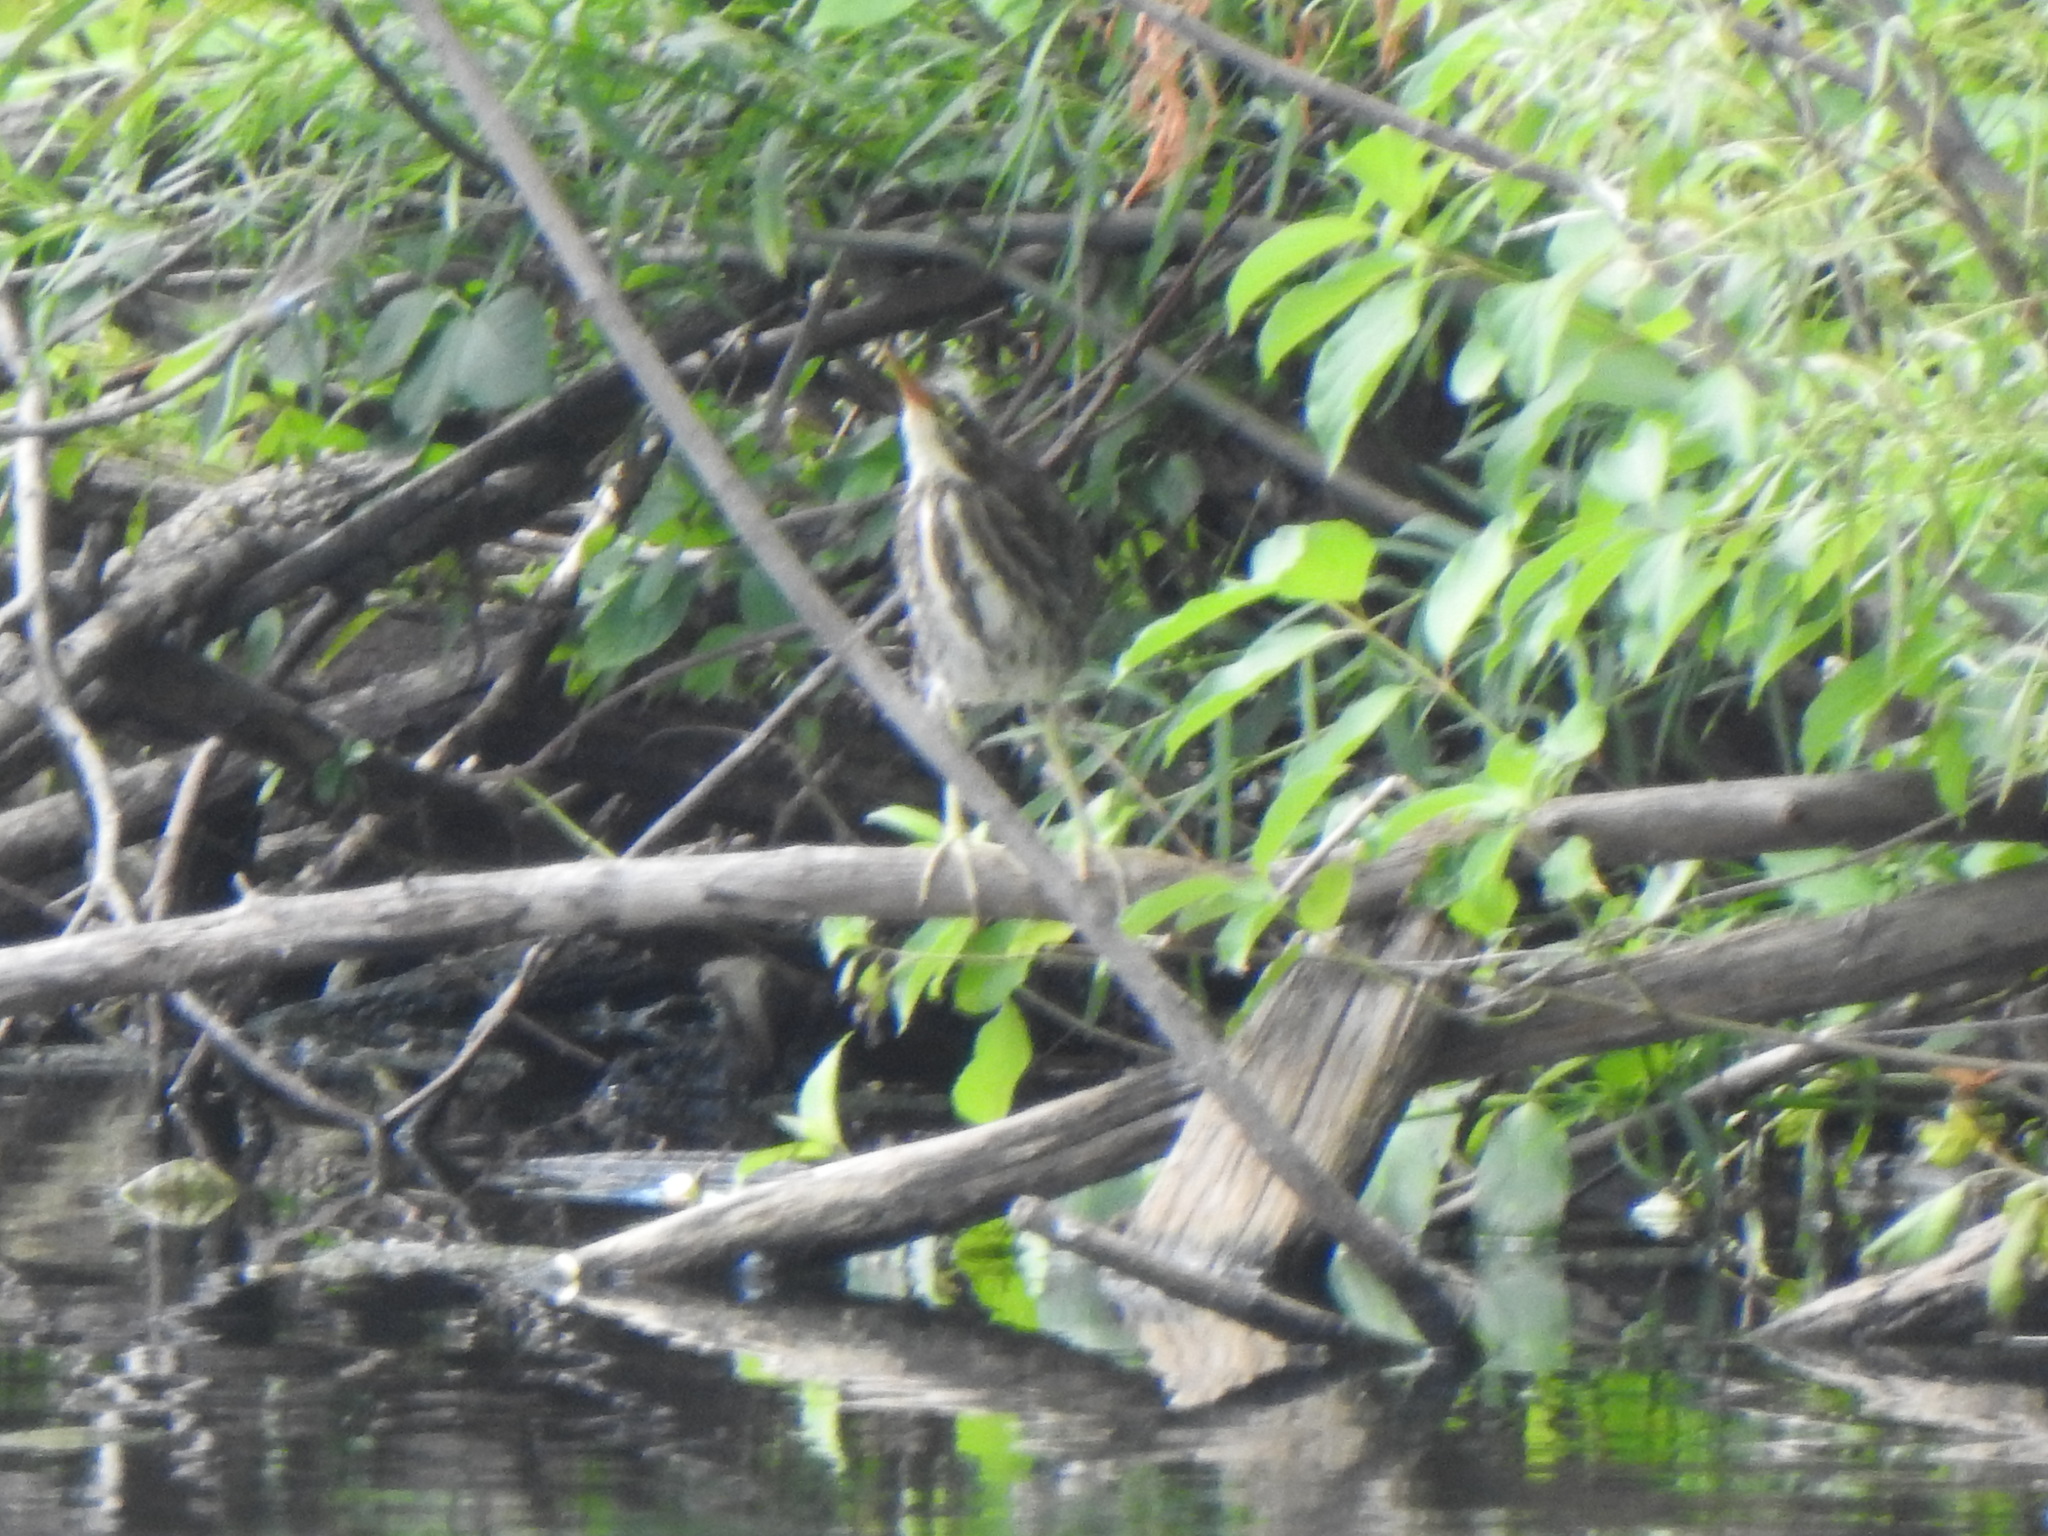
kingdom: Animalia
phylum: Chordata
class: Aves
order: Pelecaniformes
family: Ardeidae
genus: Butorides
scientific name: Butorides virescens
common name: Green heron
